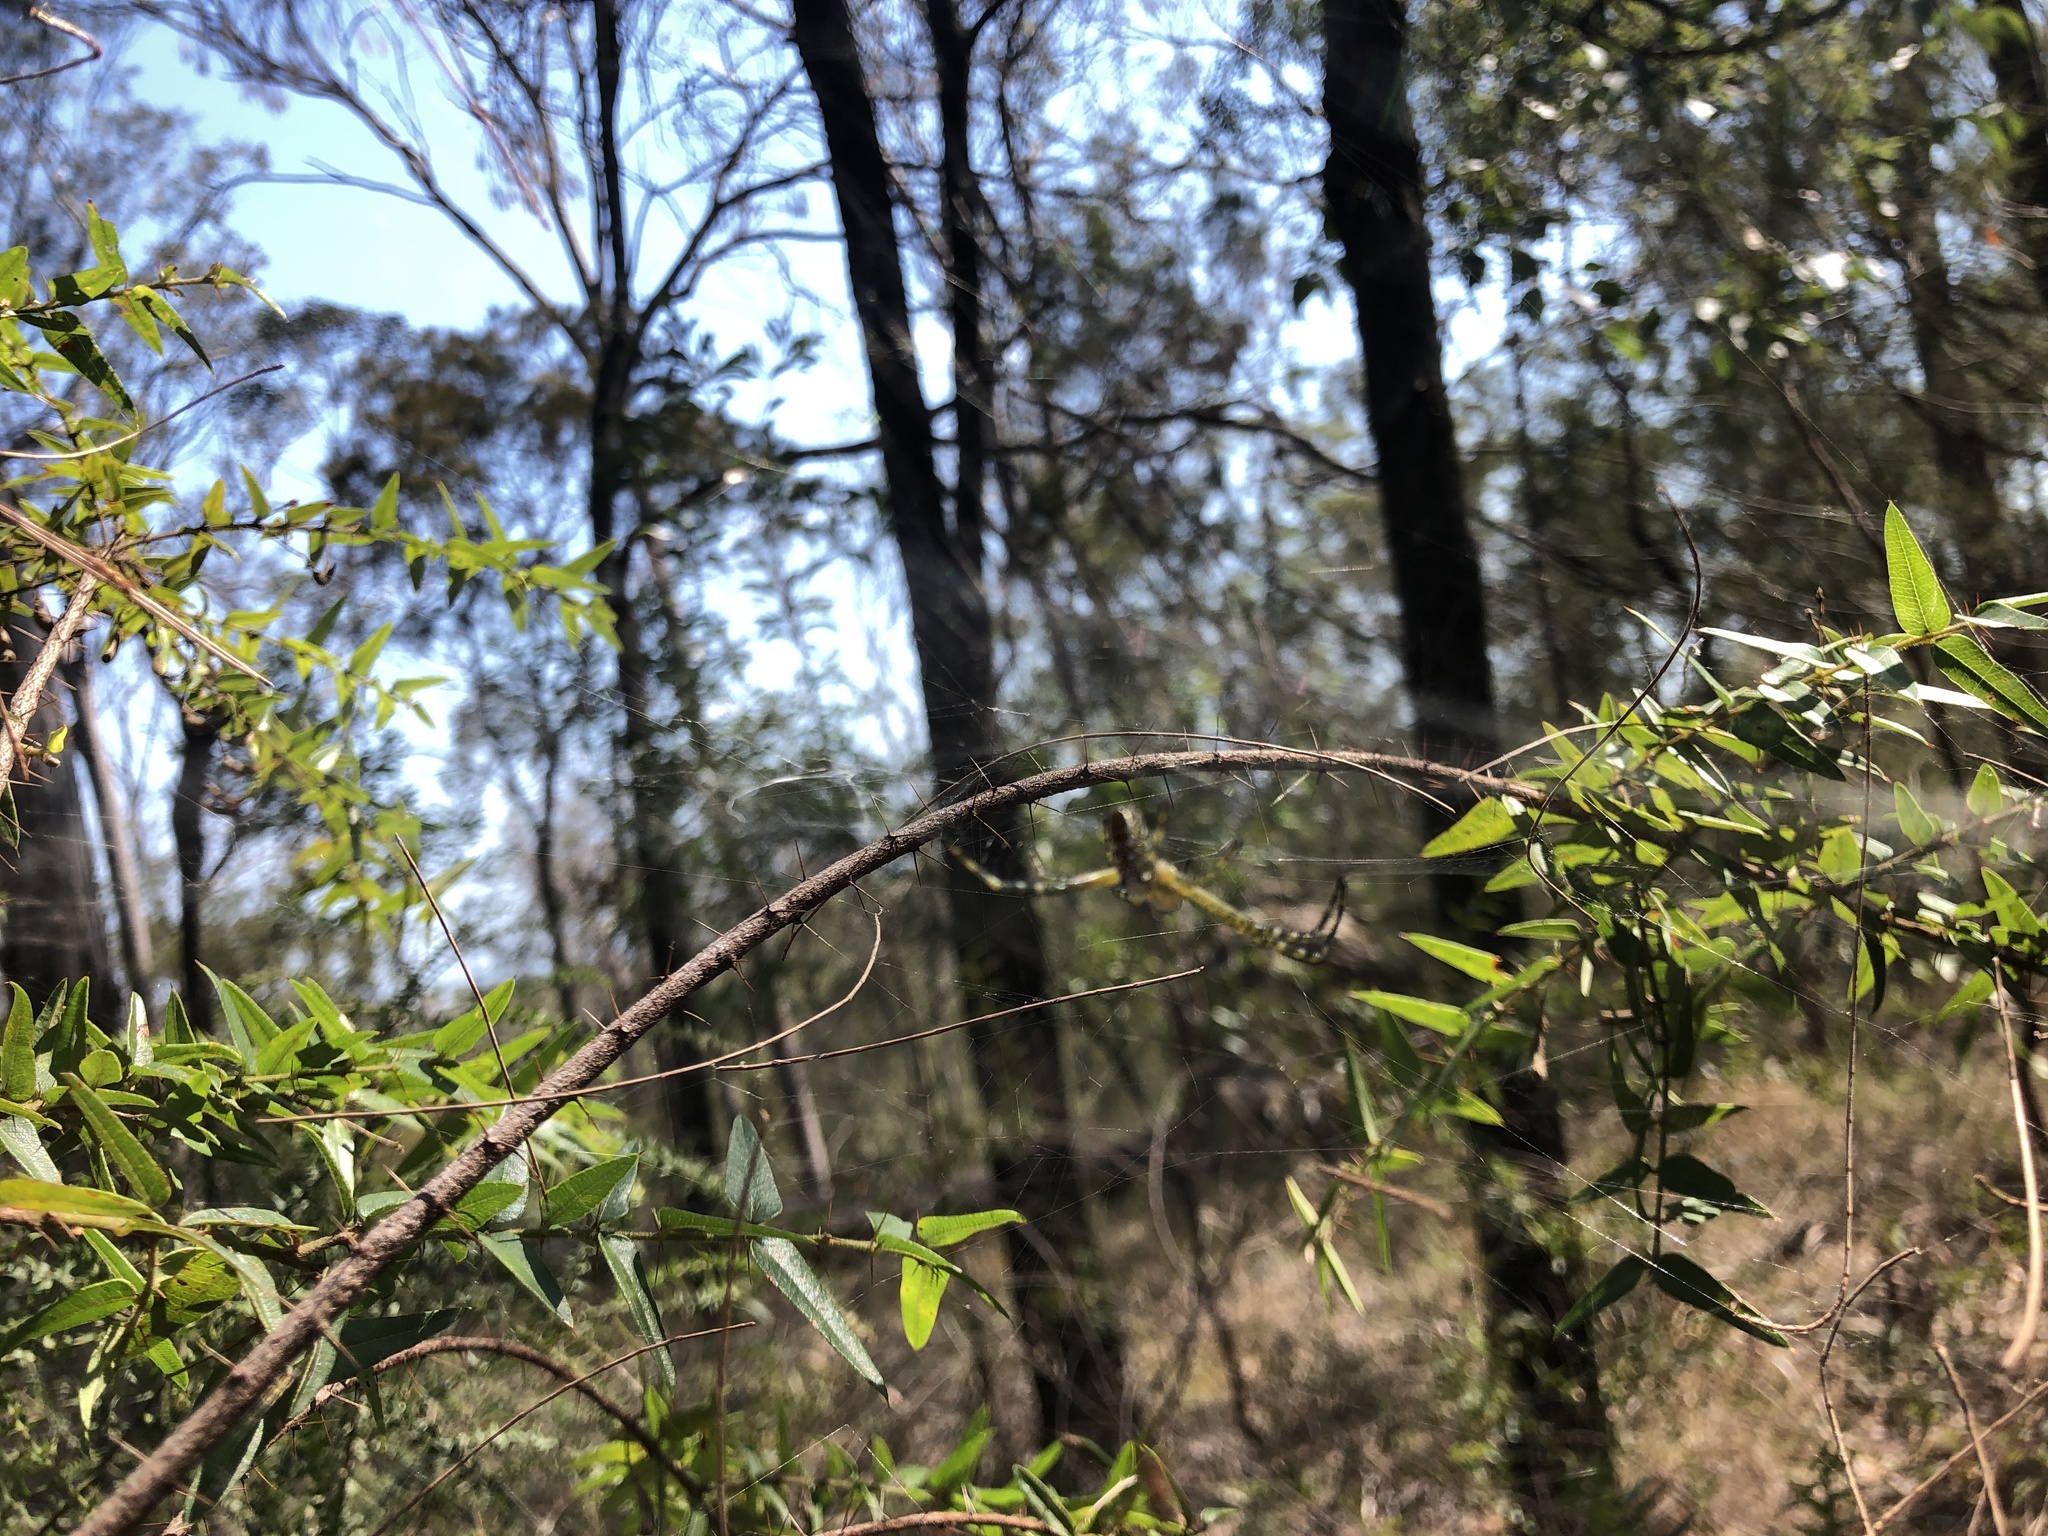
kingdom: Chromista
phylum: Ochrophyta
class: Dictyochophyceae
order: Pedinellales
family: Cyrtophoraceae
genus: Cyrtophora
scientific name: Cyrtophora moluccensis
